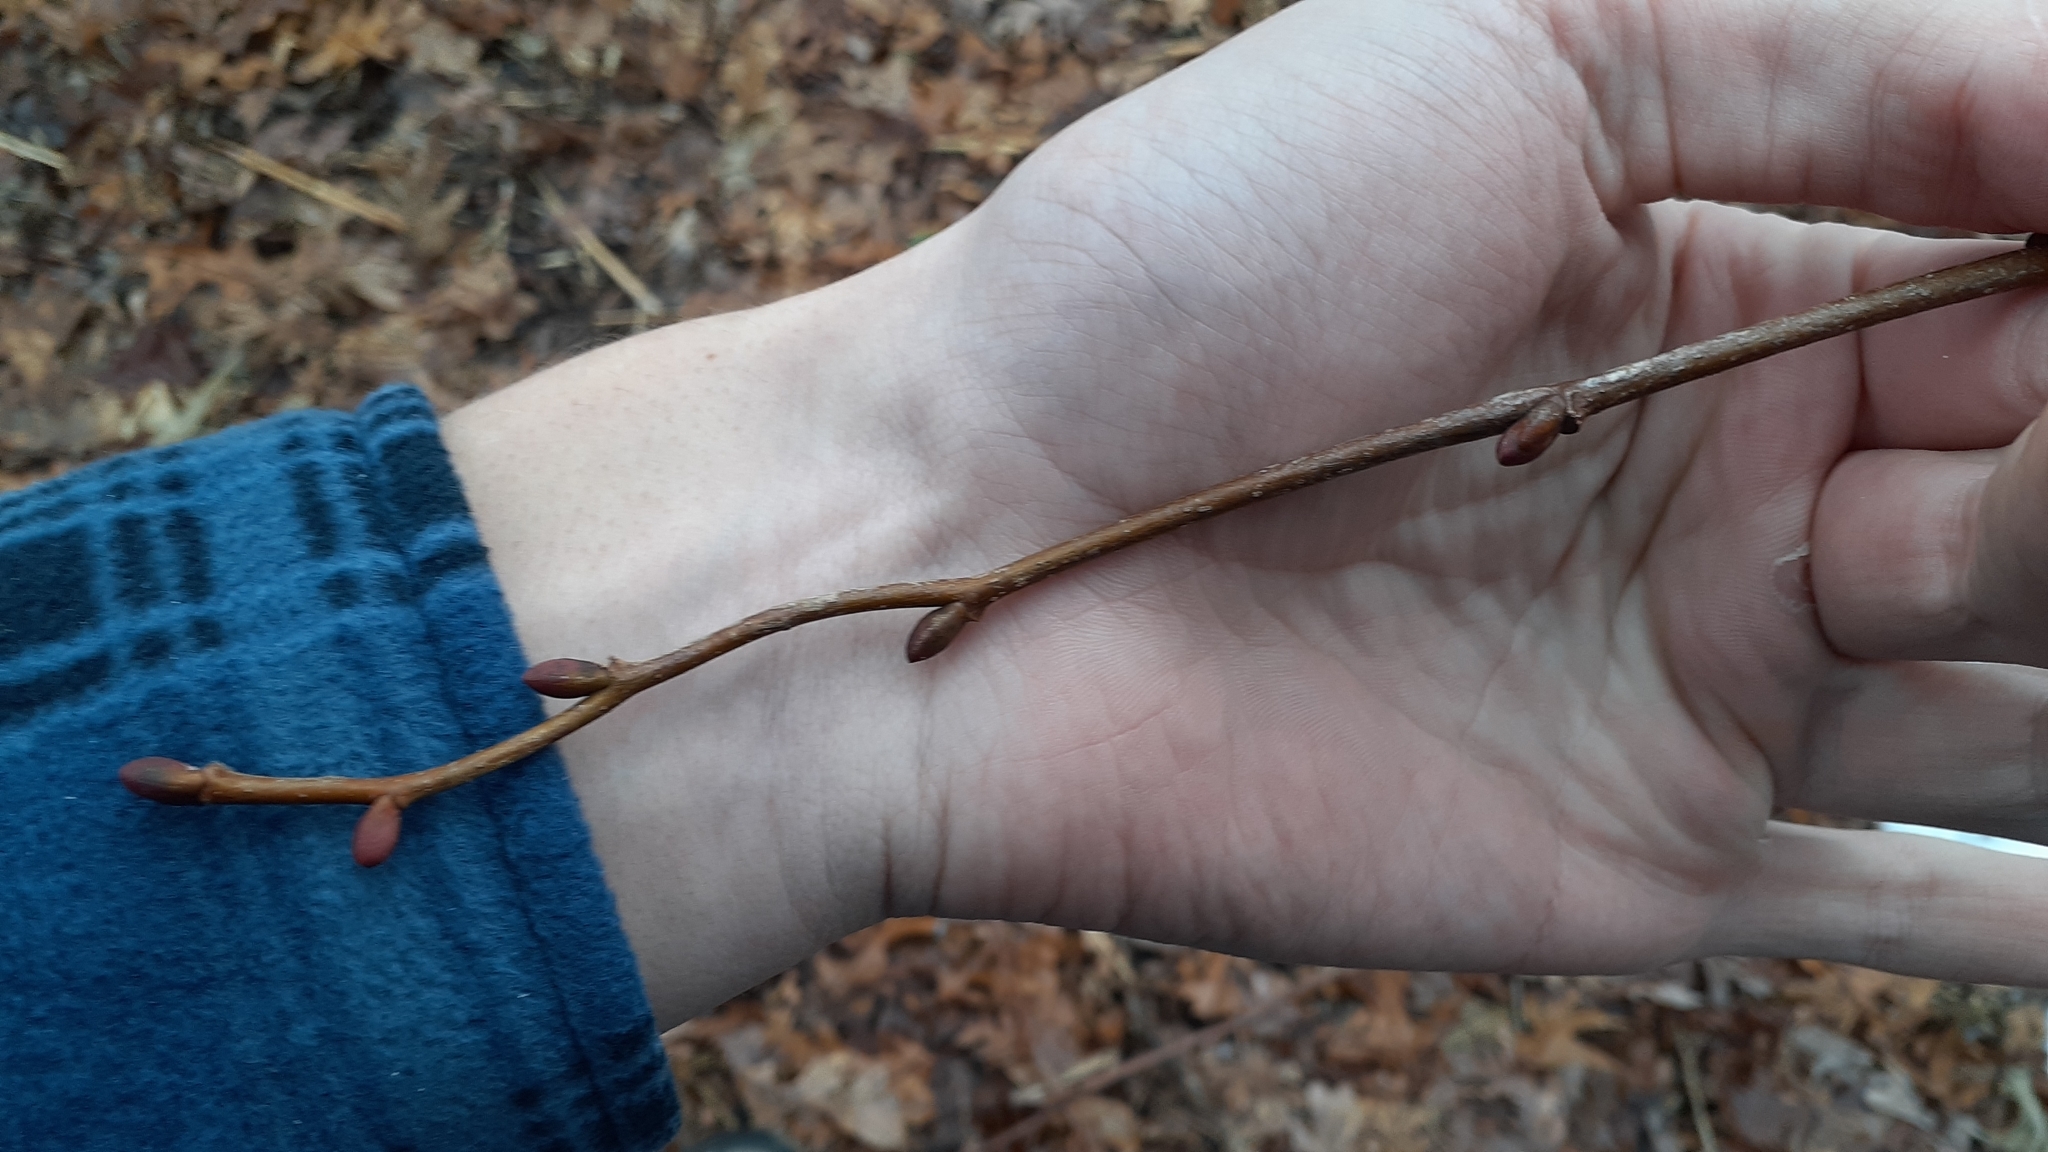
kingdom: Plantae
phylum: Tracheophyta
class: Magnoliopsida
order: Malvales
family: Malvaceae
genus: Tilia
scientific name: Tilia cordata
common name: Small-leaved lime
